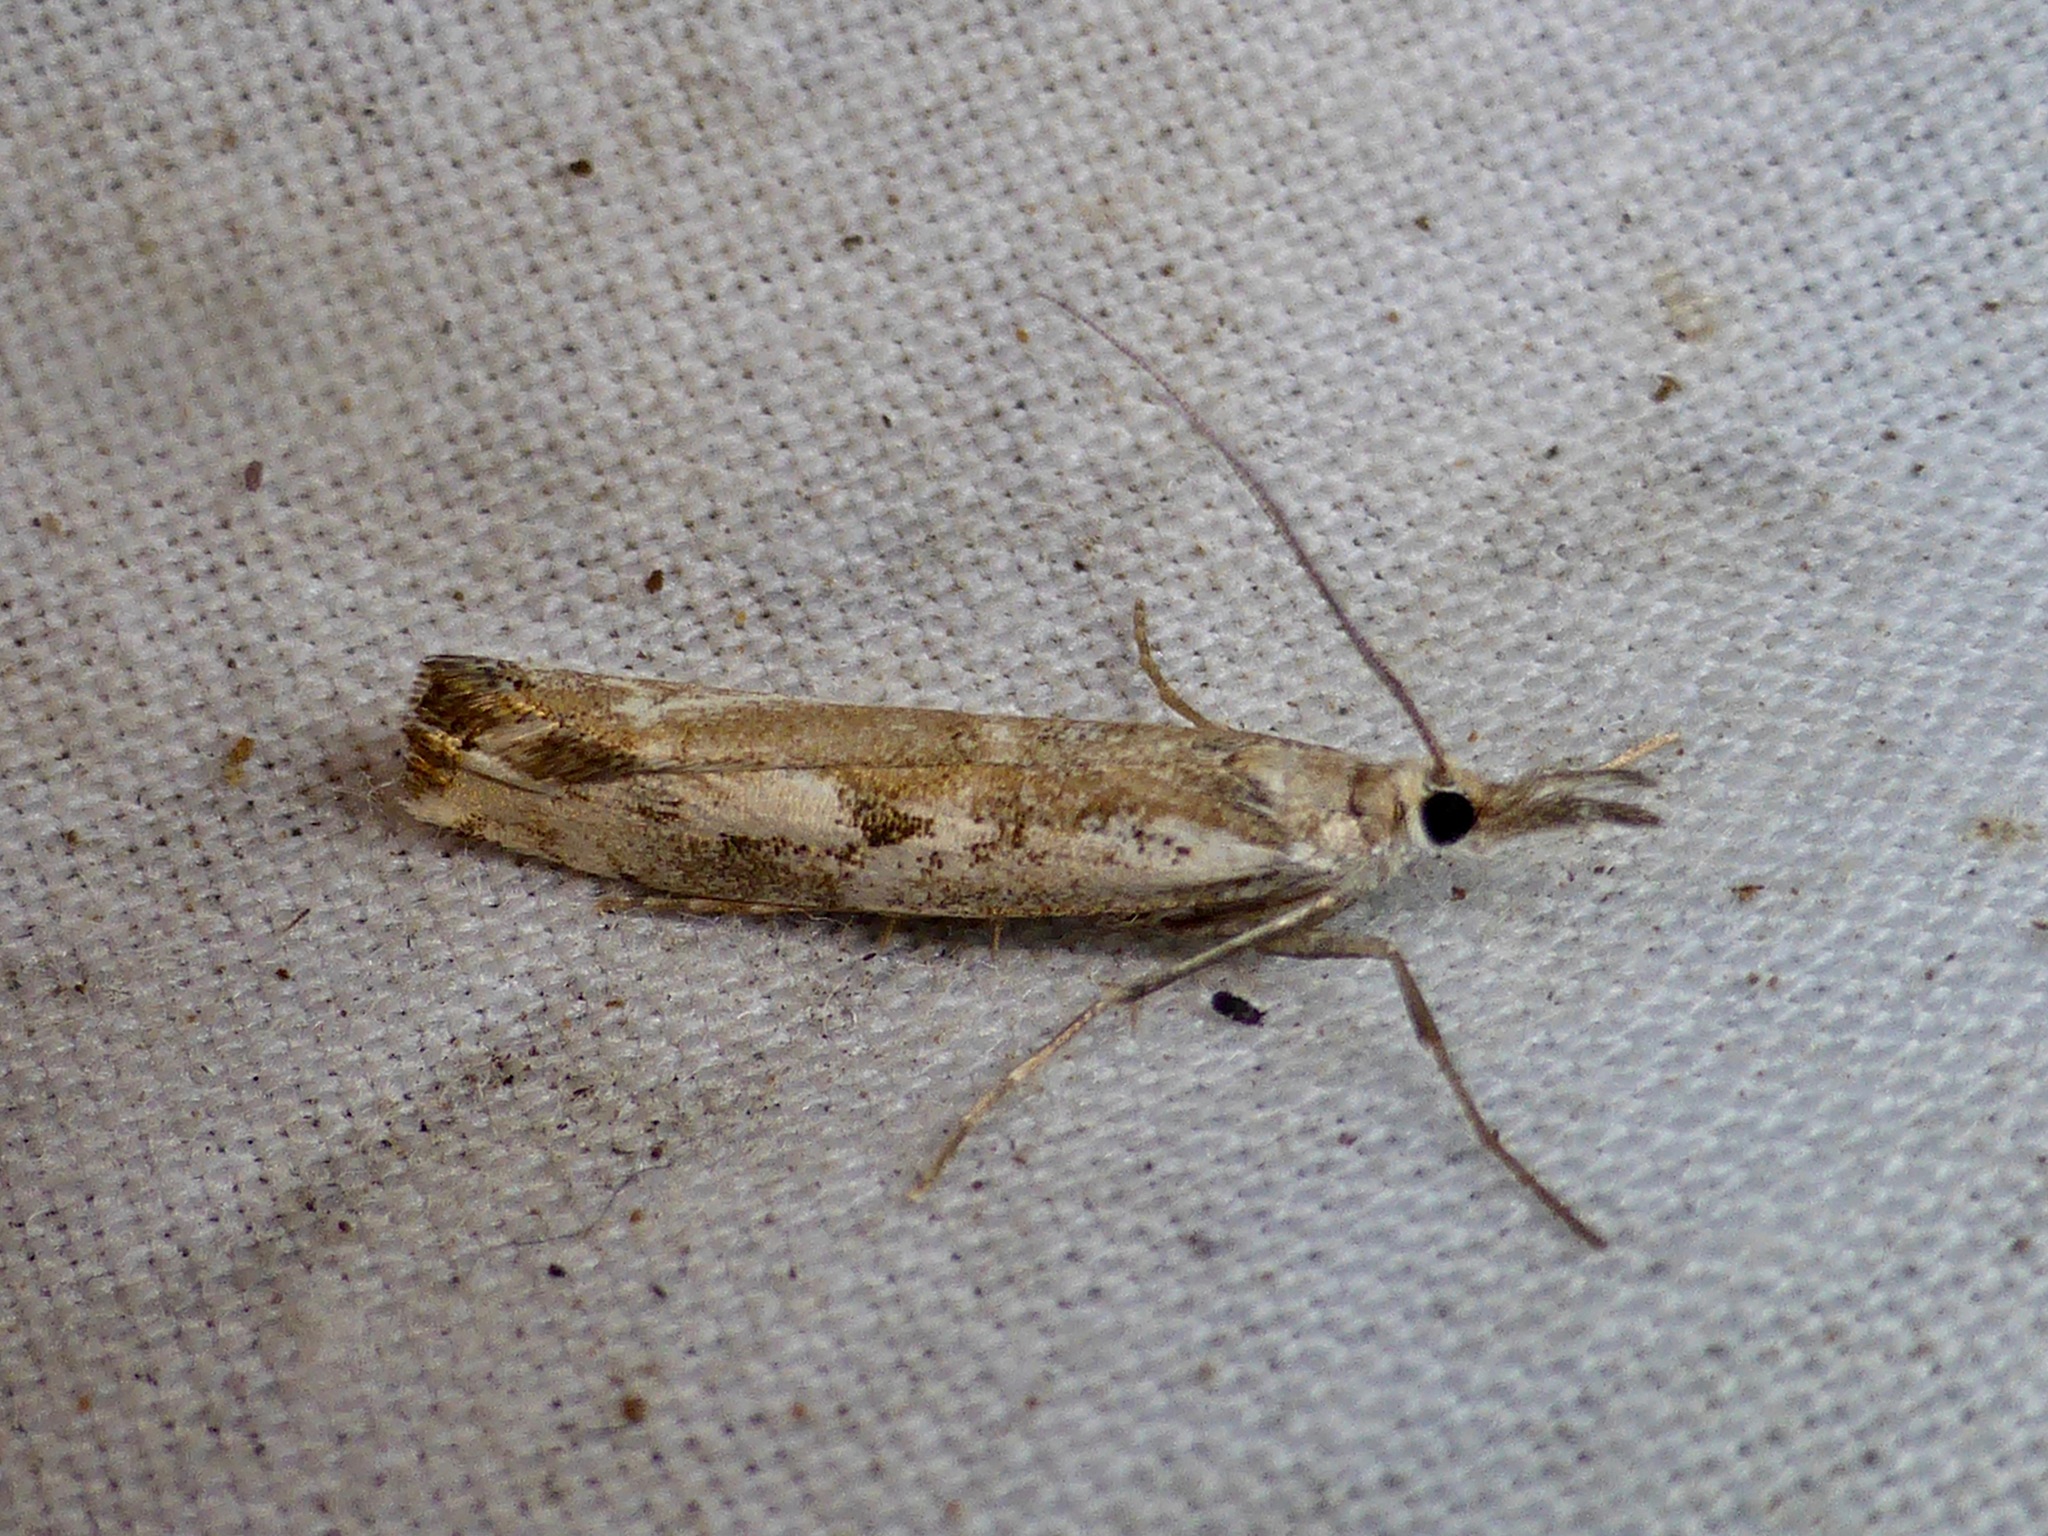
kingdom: Animalia
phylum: Arthropoda
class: Insecta
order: Lepidoptera
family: Crambidae
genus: Orocrambus
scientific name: Orocrambus vulgaris
